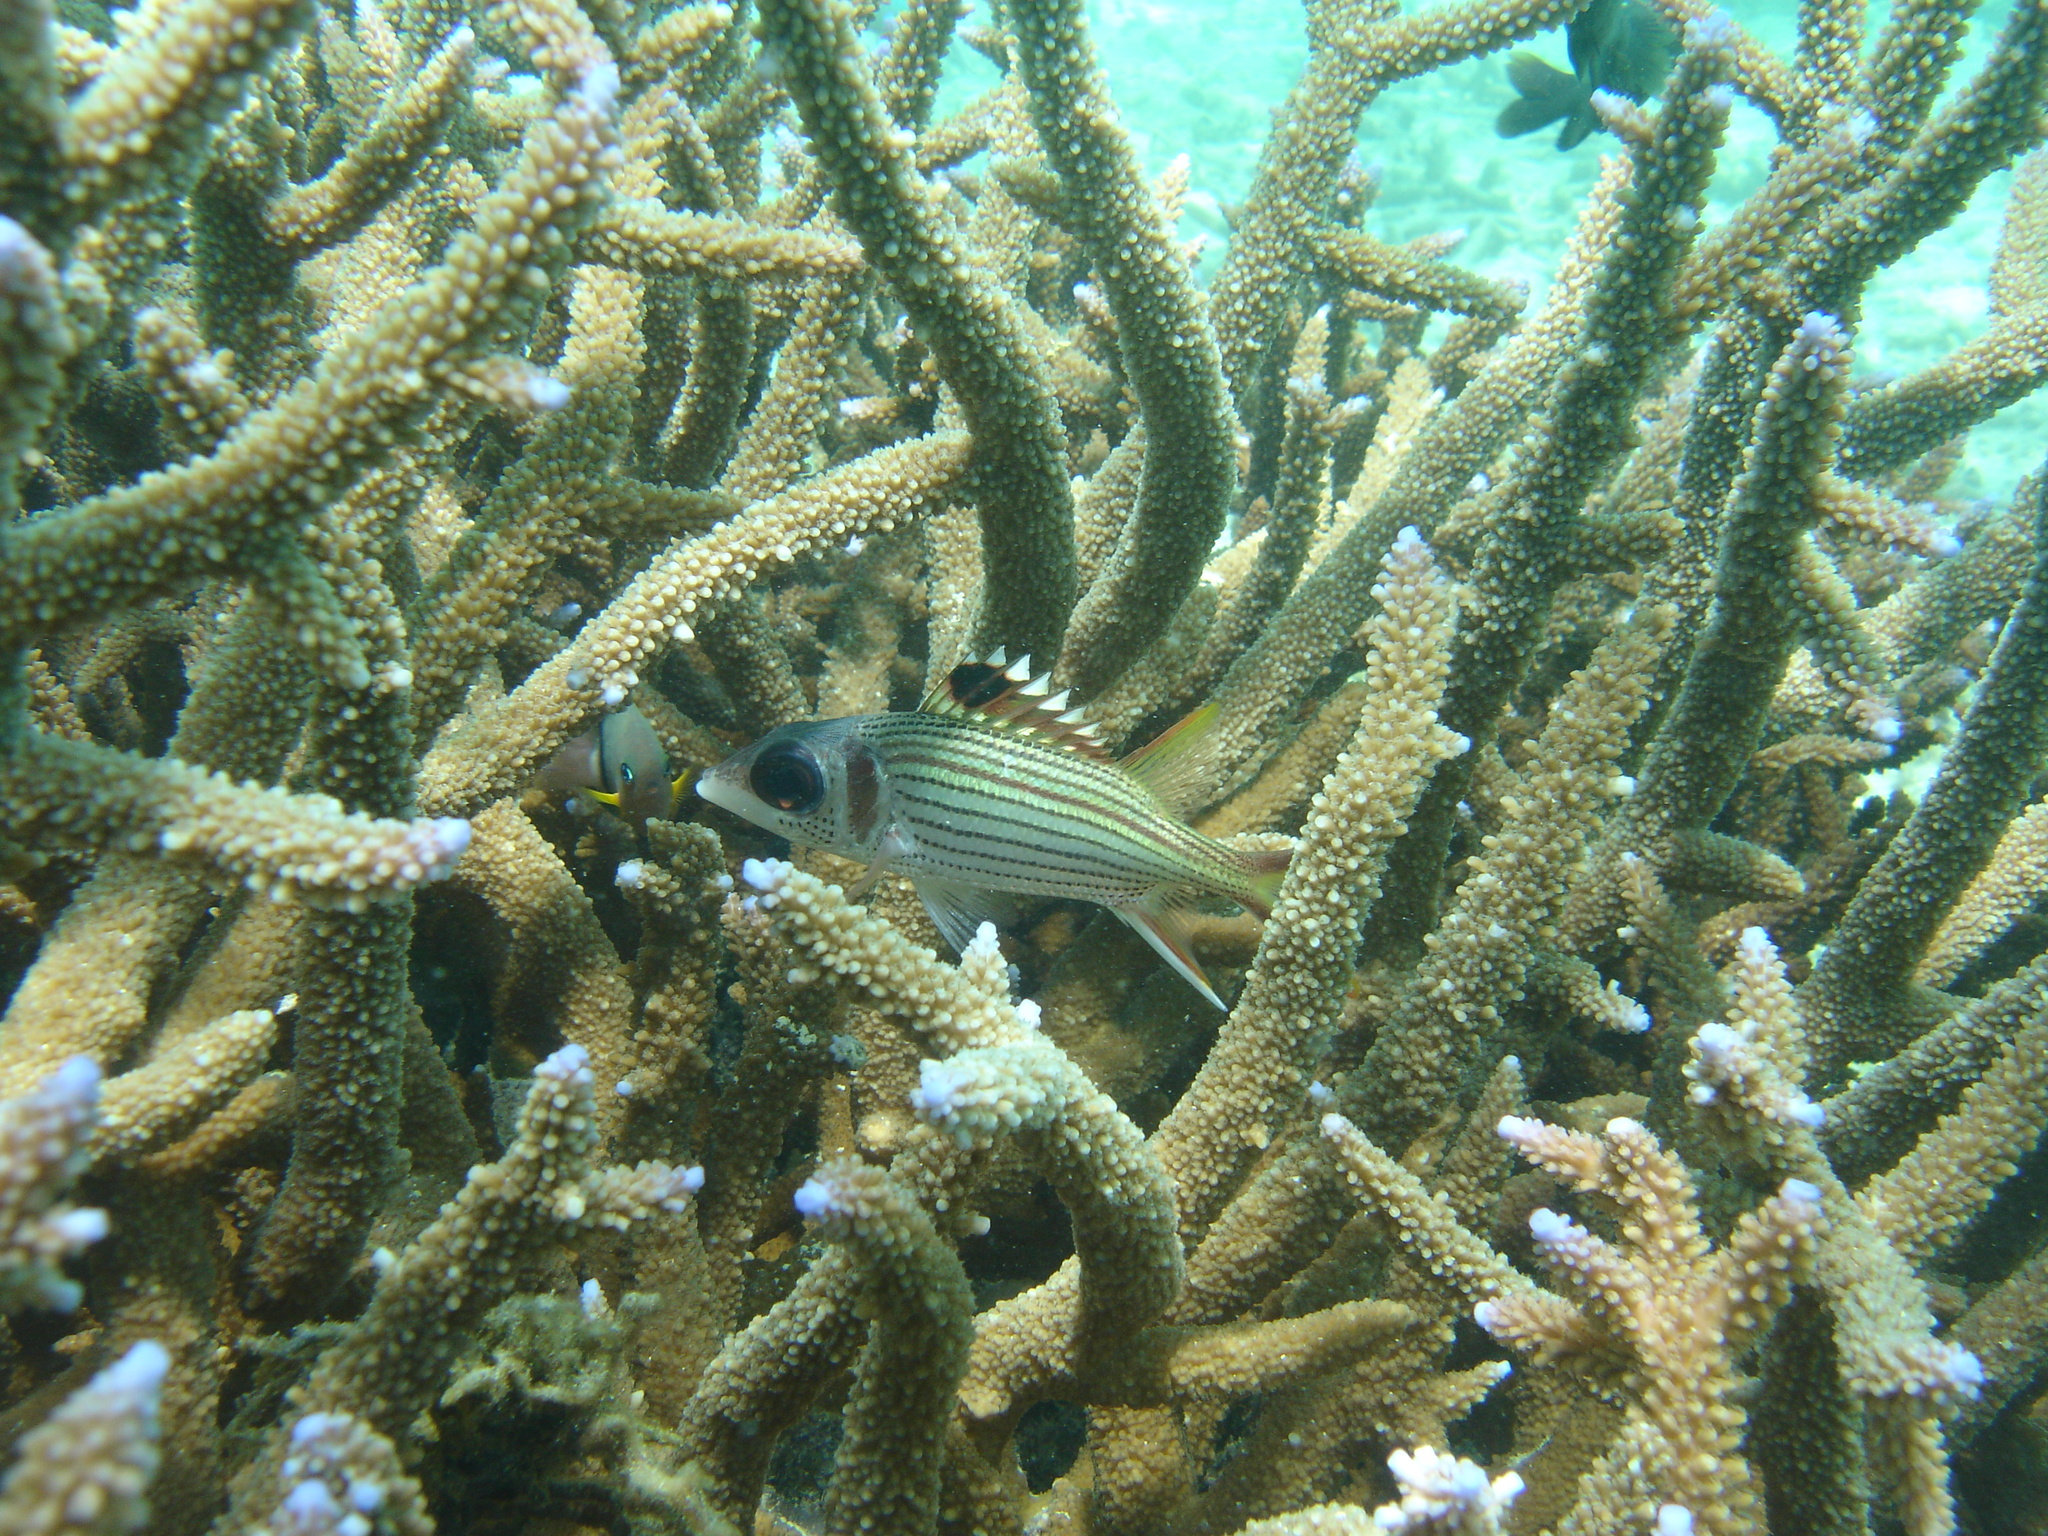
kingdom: Animalia
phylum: Chordata
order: Beryciformes
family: Holocentridae
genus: Neoniphon
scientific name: Neoniphon sammara
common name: Sammara squirrelfish
